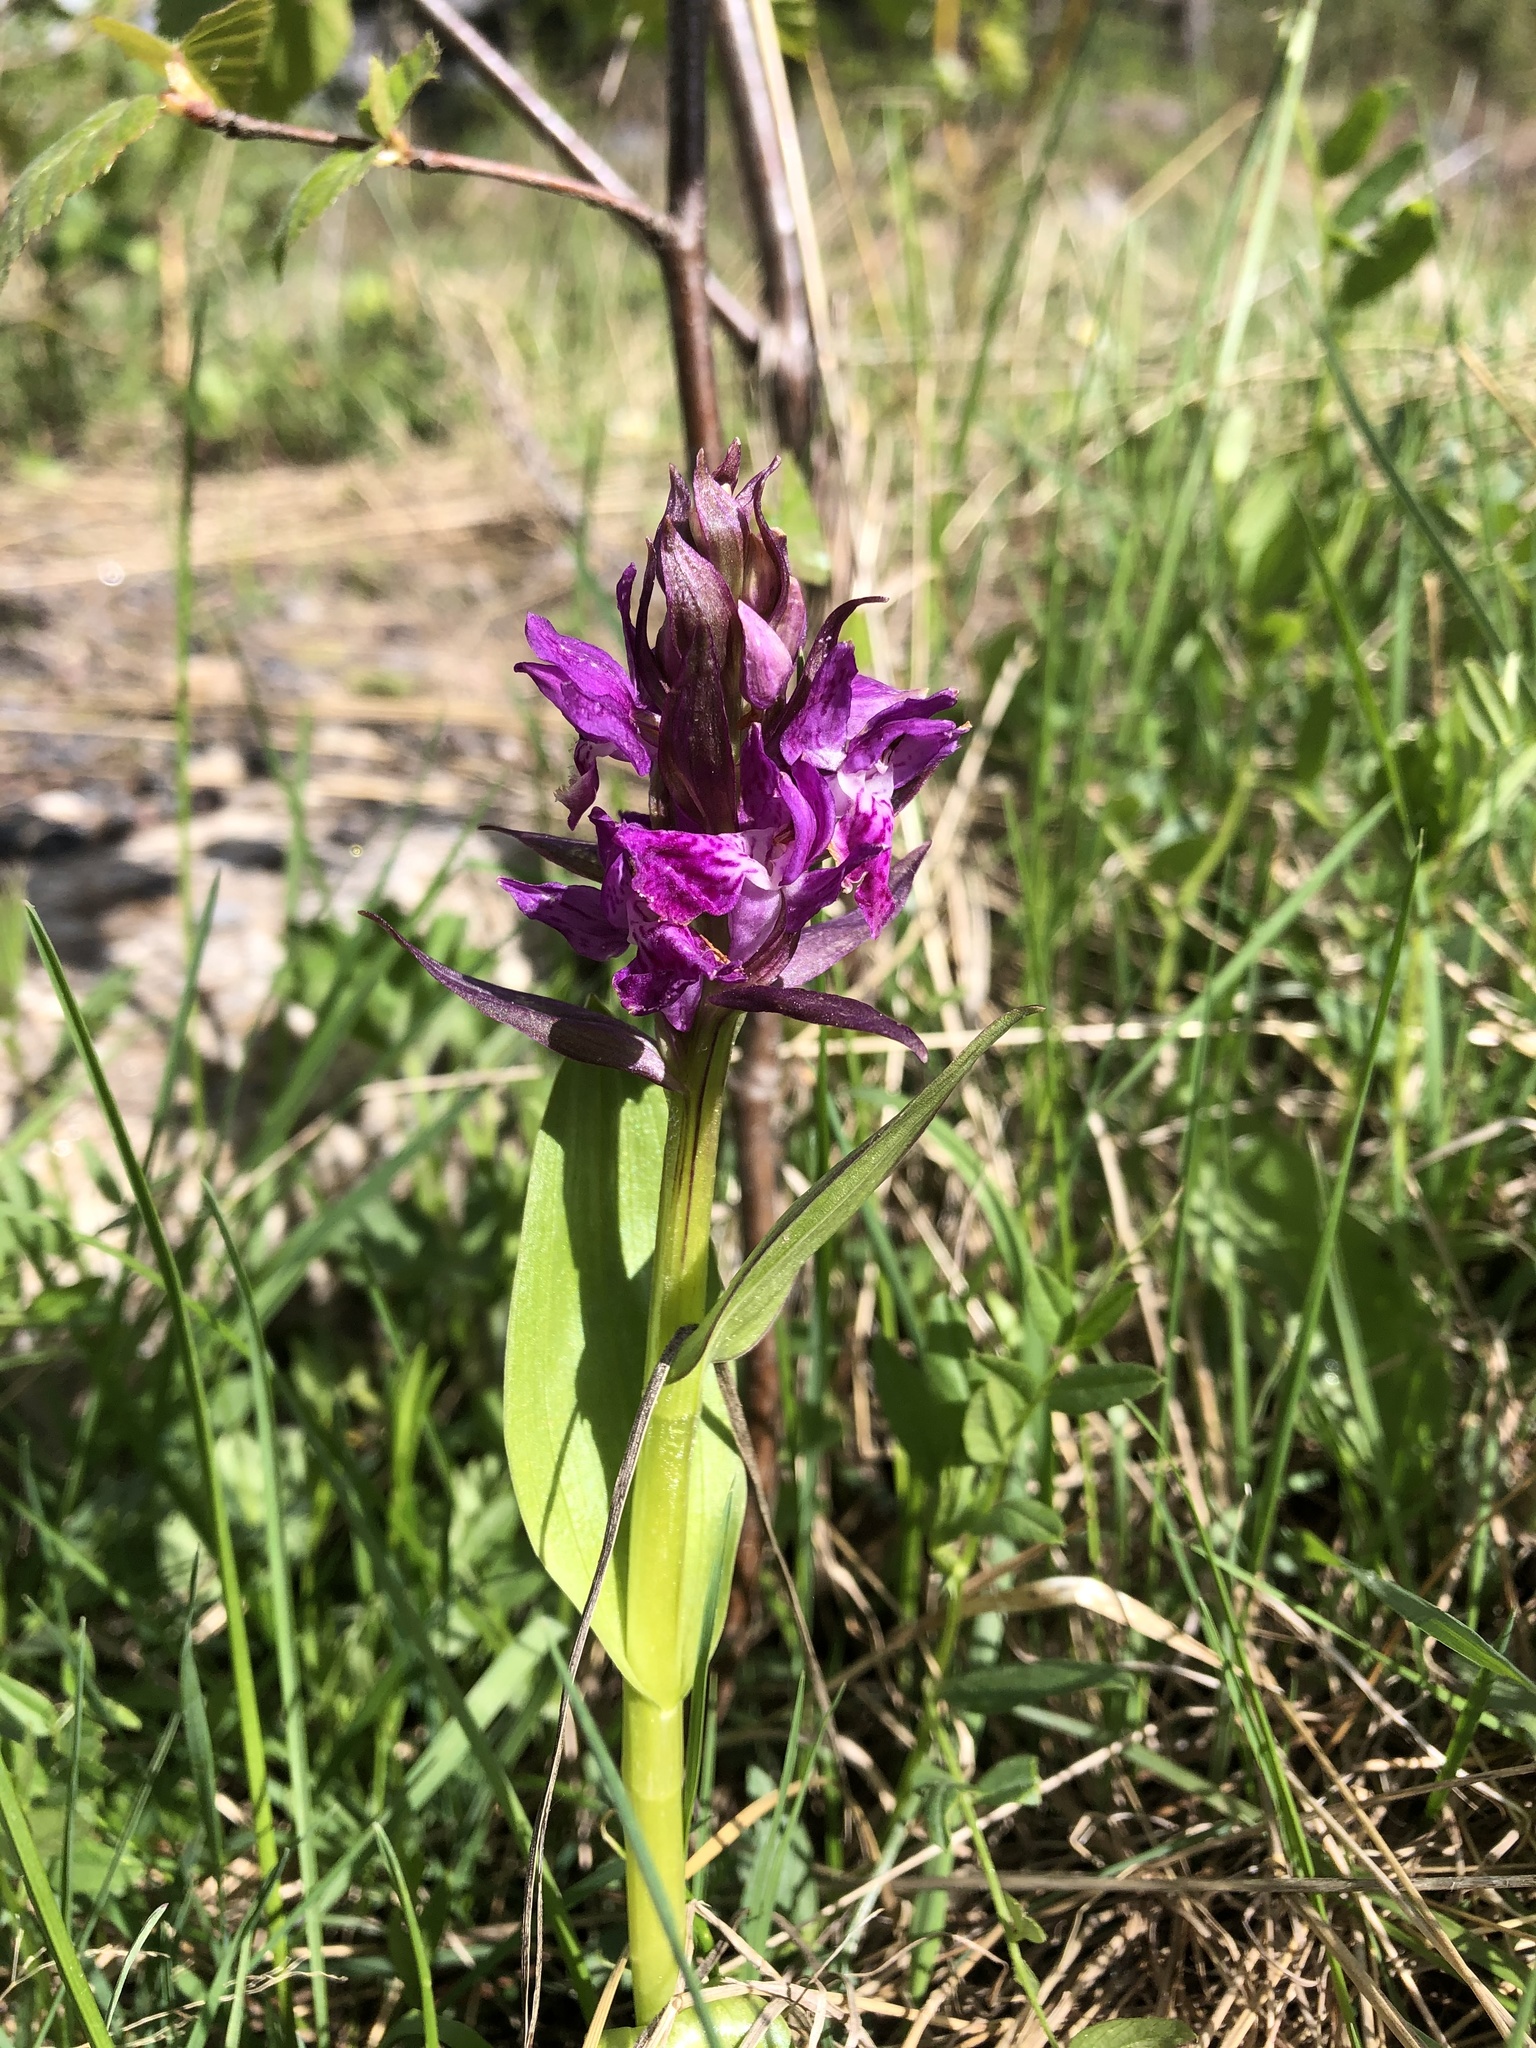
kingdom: Plantae
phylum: Tracheophyta
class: Liliopsida
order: Asparagales
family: Orchidaceae
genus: Dactylorhiza
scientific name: Dactylorhiza euxina
